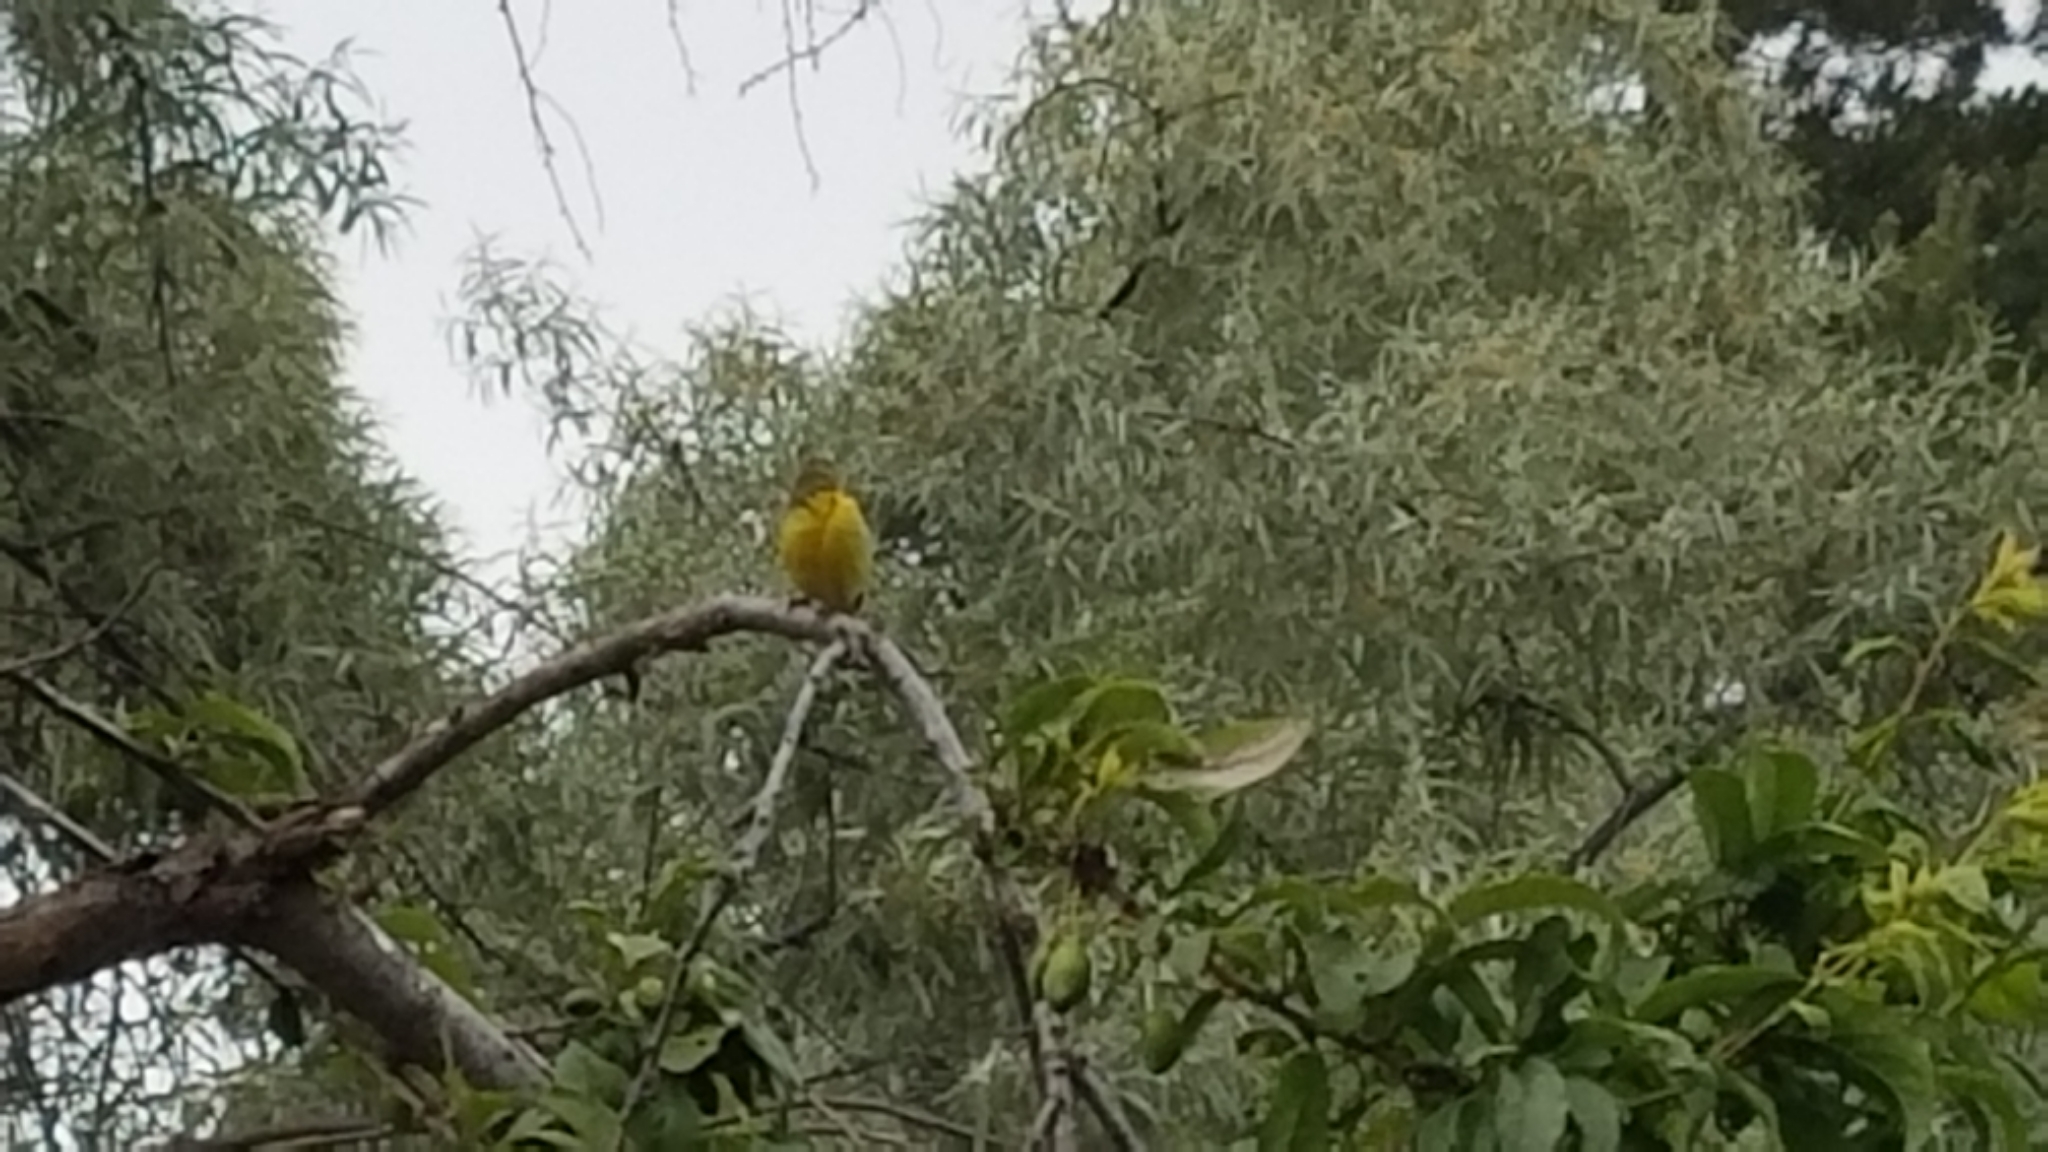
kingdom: Animalia
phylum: Chordata
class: Aves
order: Passeriformes
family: Fringillidae
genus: Spinus
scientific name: Spinus psaltria
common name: Lesser goldfinch
